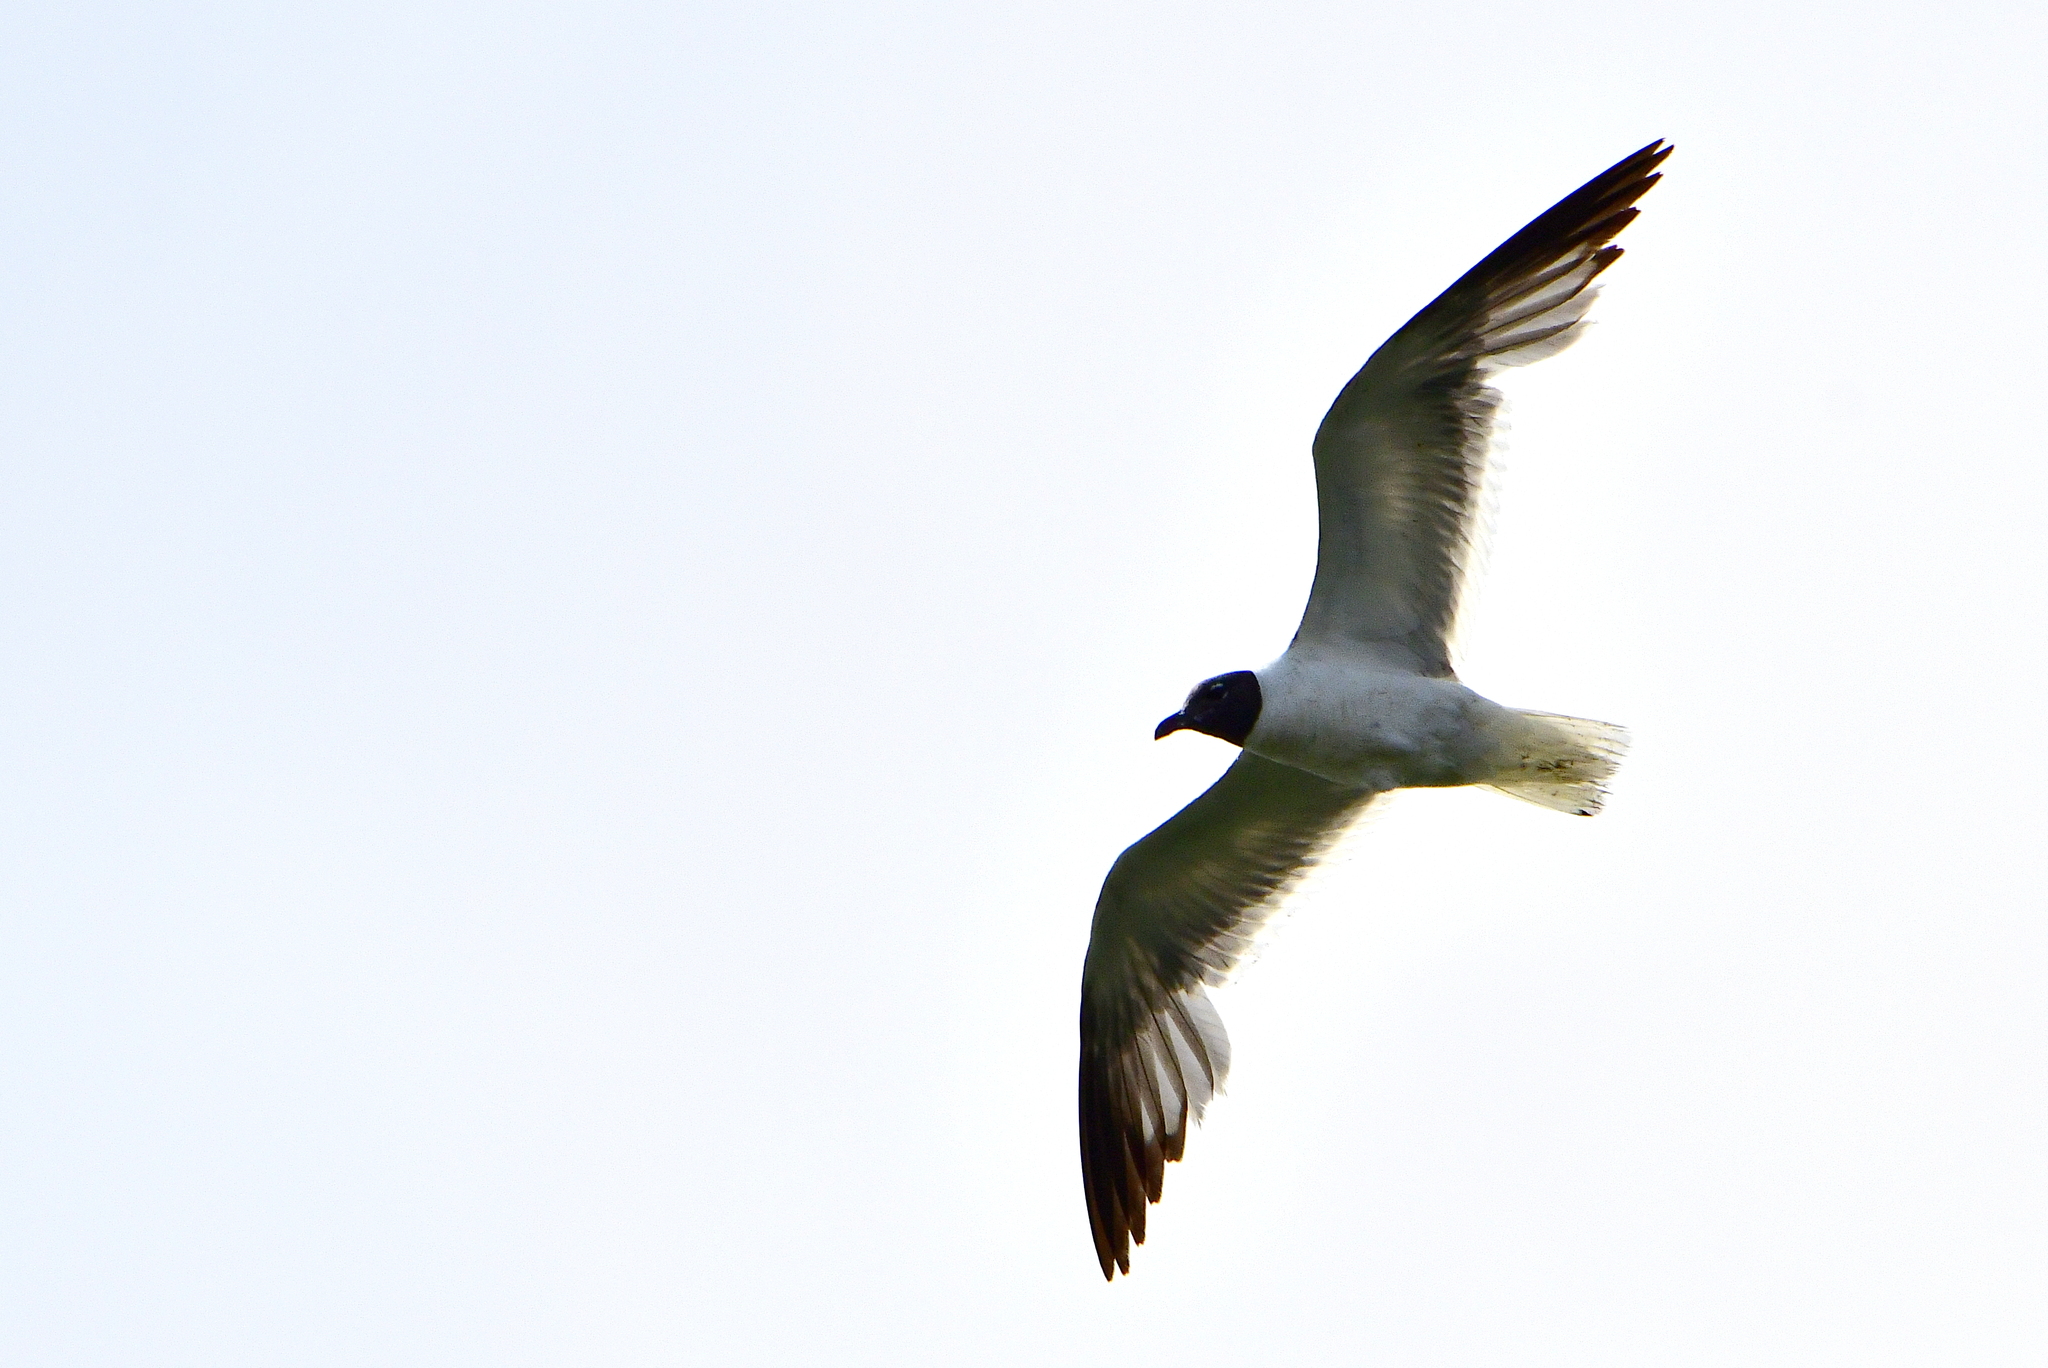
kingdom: Animalia
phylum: Chordata
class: Aves
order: Charadriiformes
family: Laridae
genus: Leucophaeus
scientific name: Leucophaeus atricilla
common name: Laughing gull
